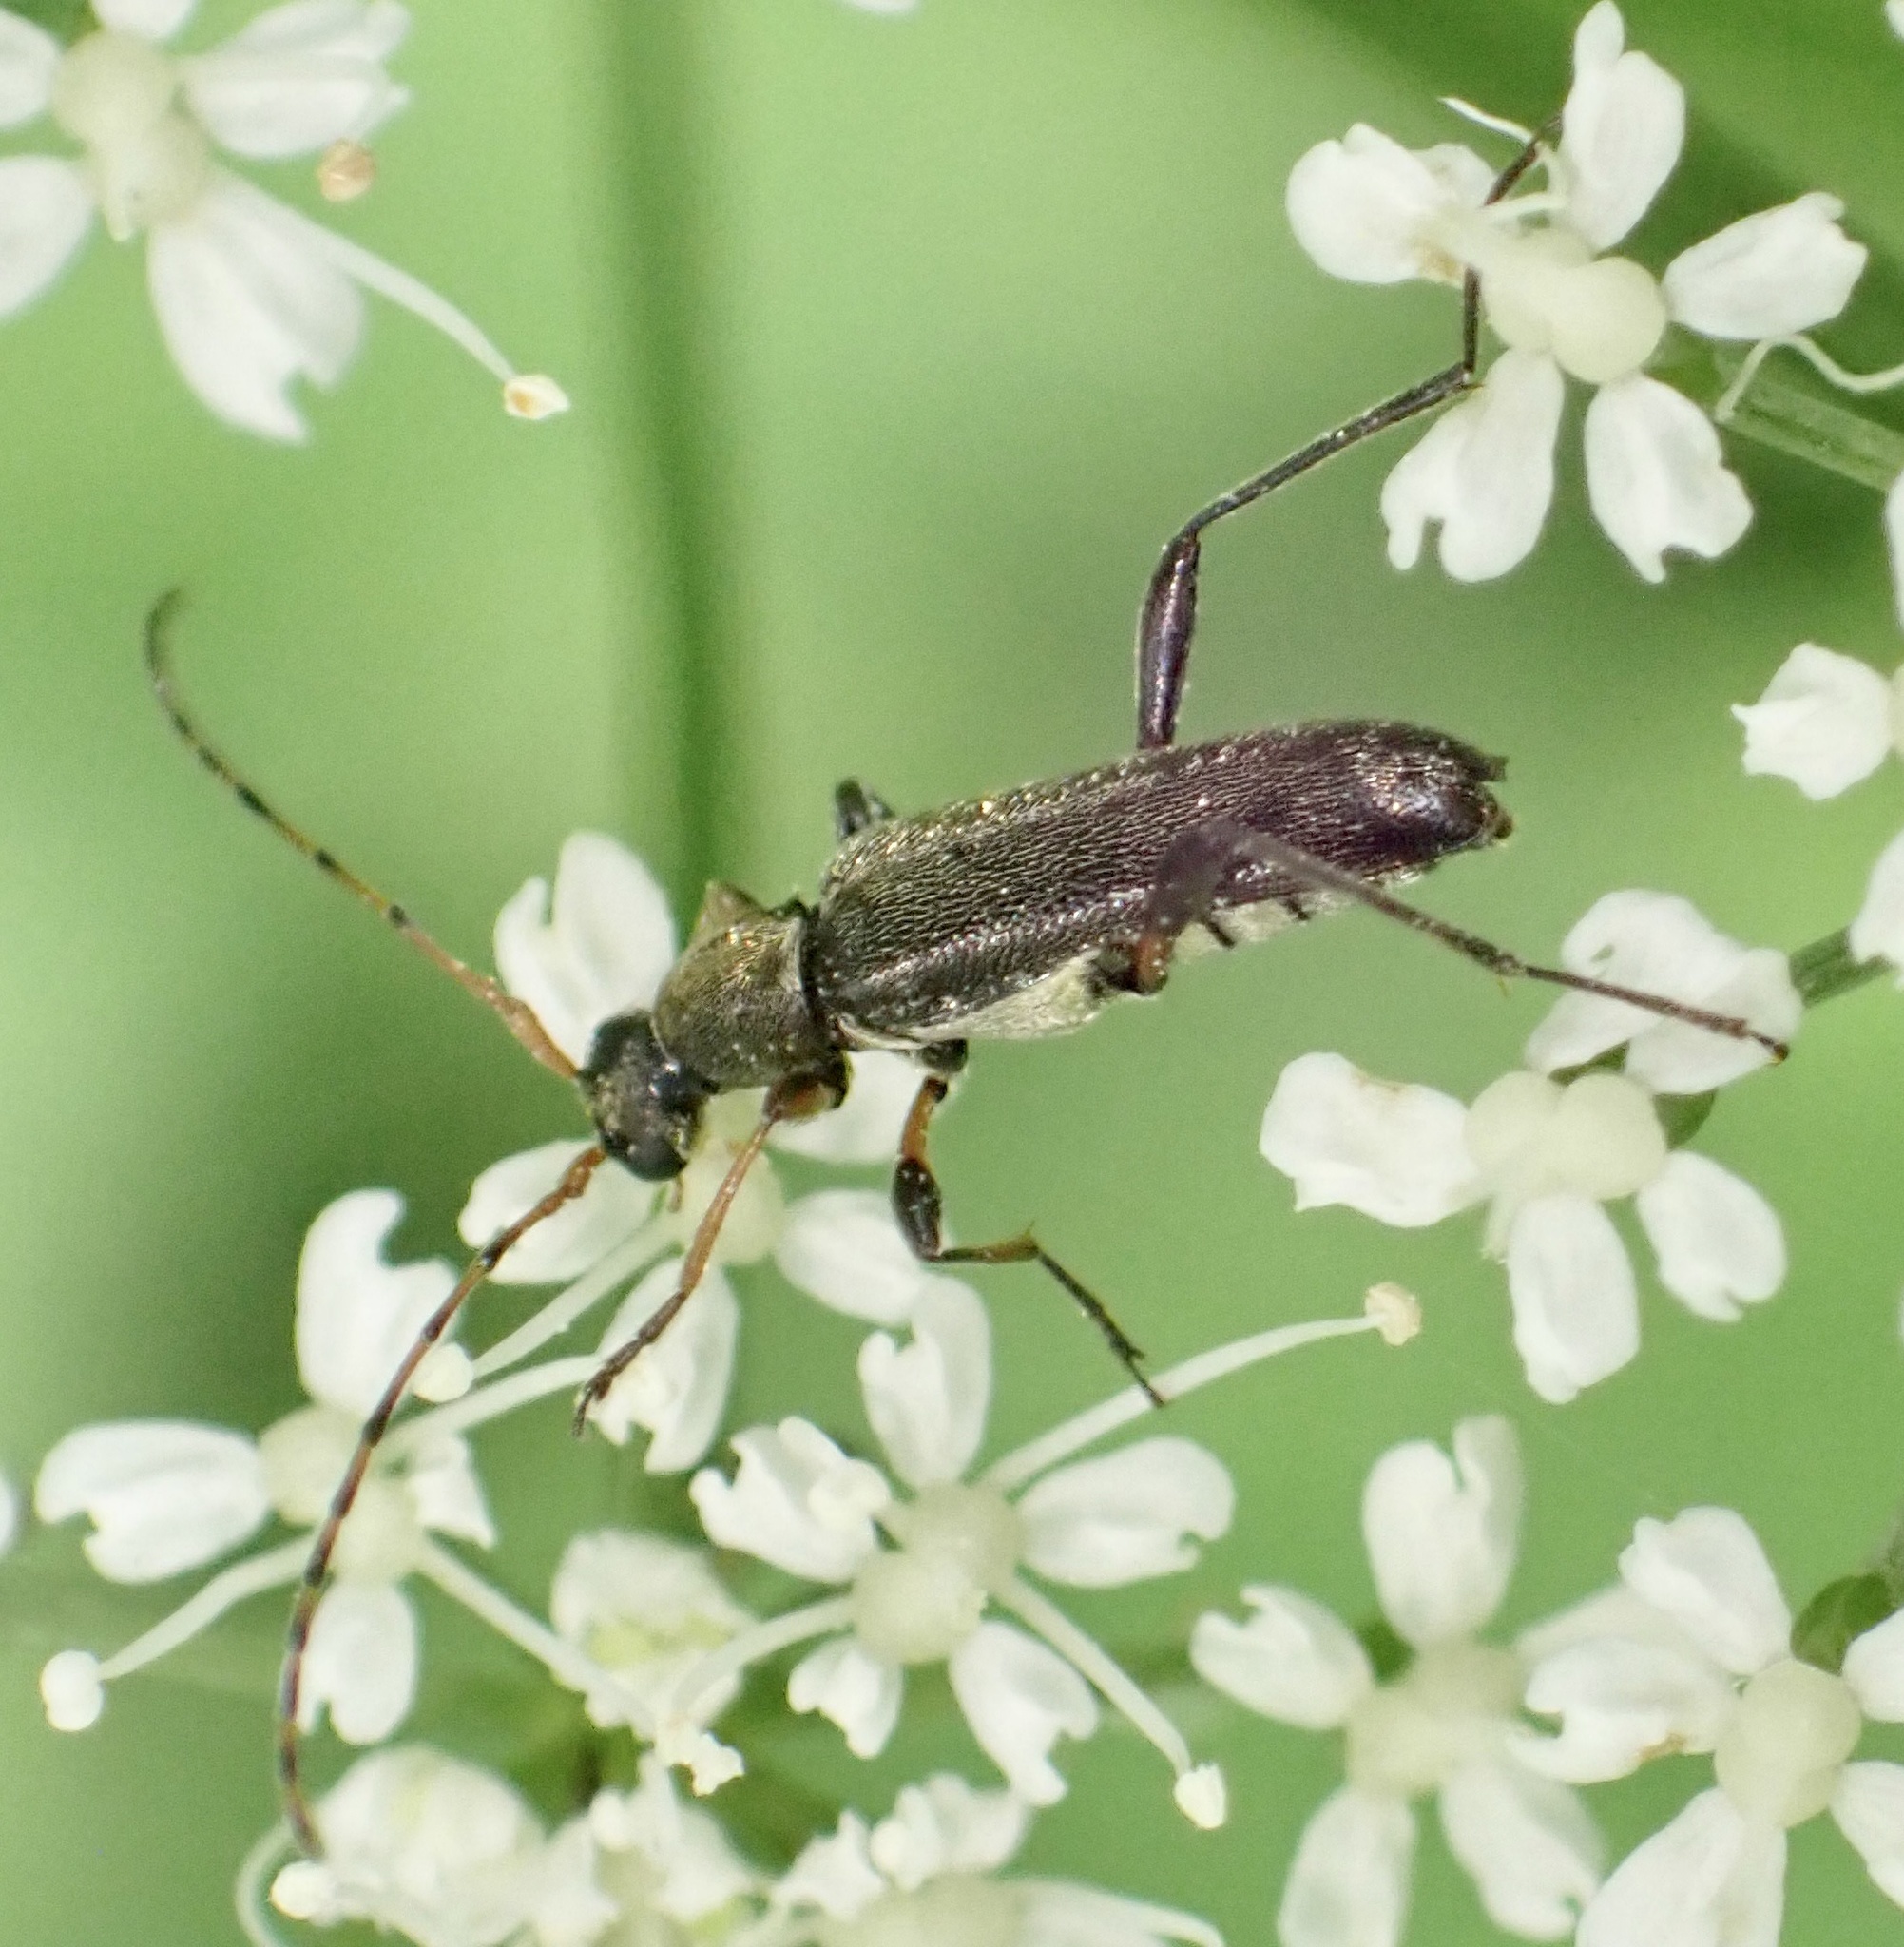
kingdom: Animalia
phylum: Arthropoda
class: Insecta
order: Coleoptera
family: Cerambycidae
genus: Grammoptera
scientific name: Grammoptera ruficornis
